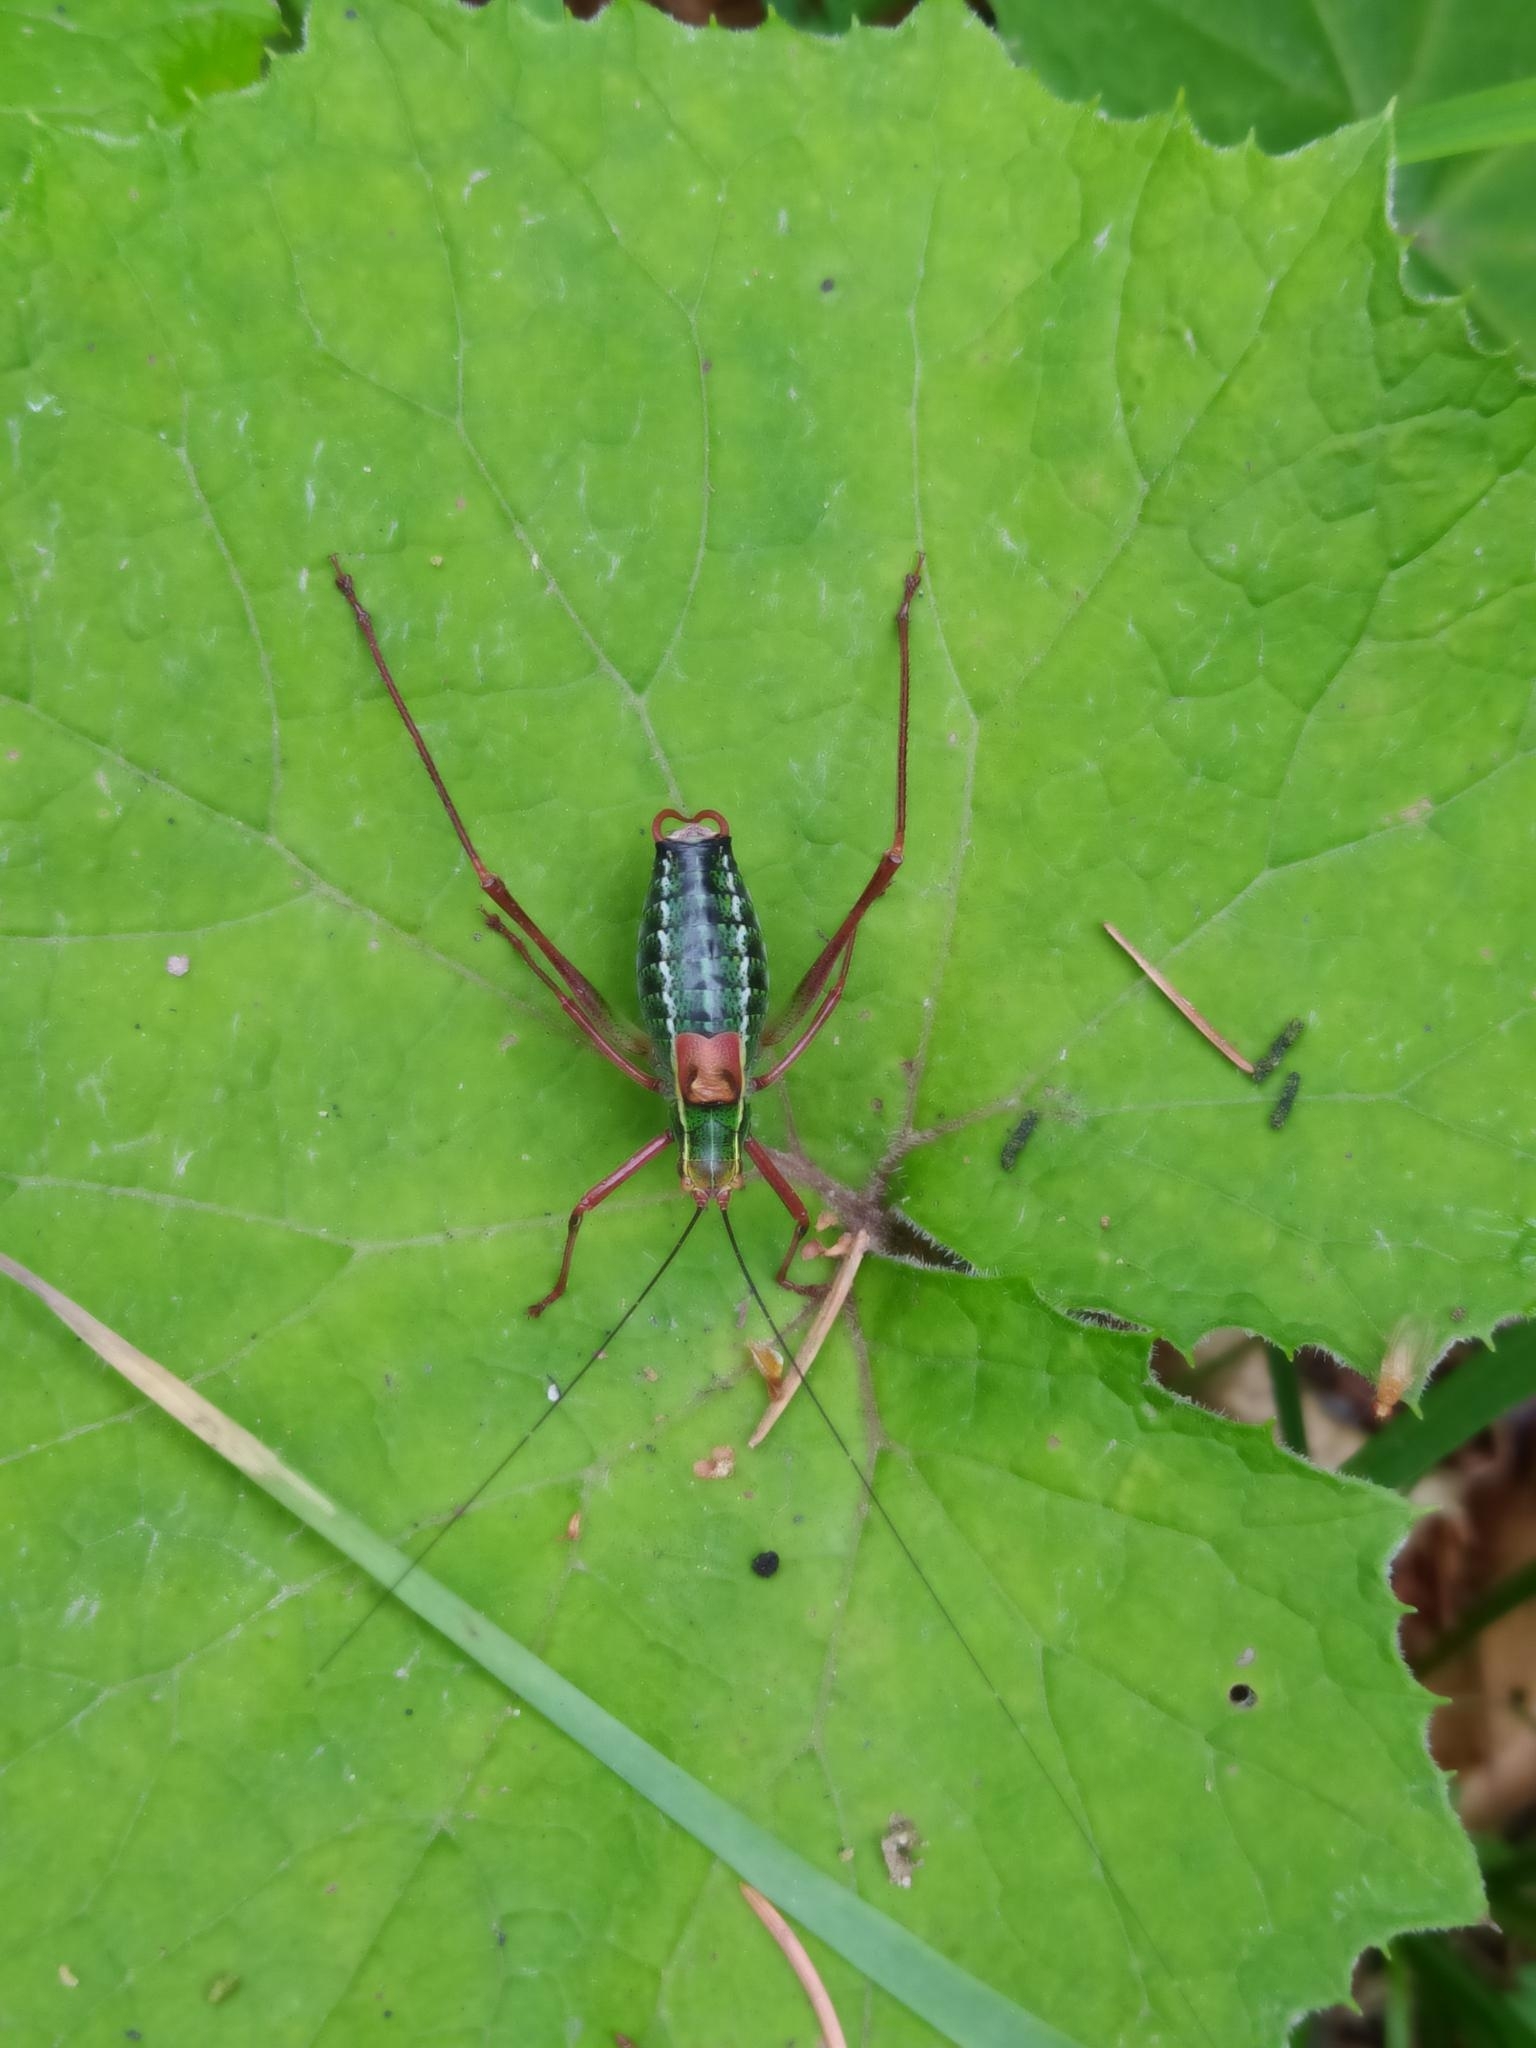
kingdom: Animalia
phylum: Arthropoda
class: Insecta
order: Orthoptera
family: Tettigoniidae
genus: Barbitistes
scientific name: Barbitistes serricauda
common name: Saw-tailed bush-cricket
